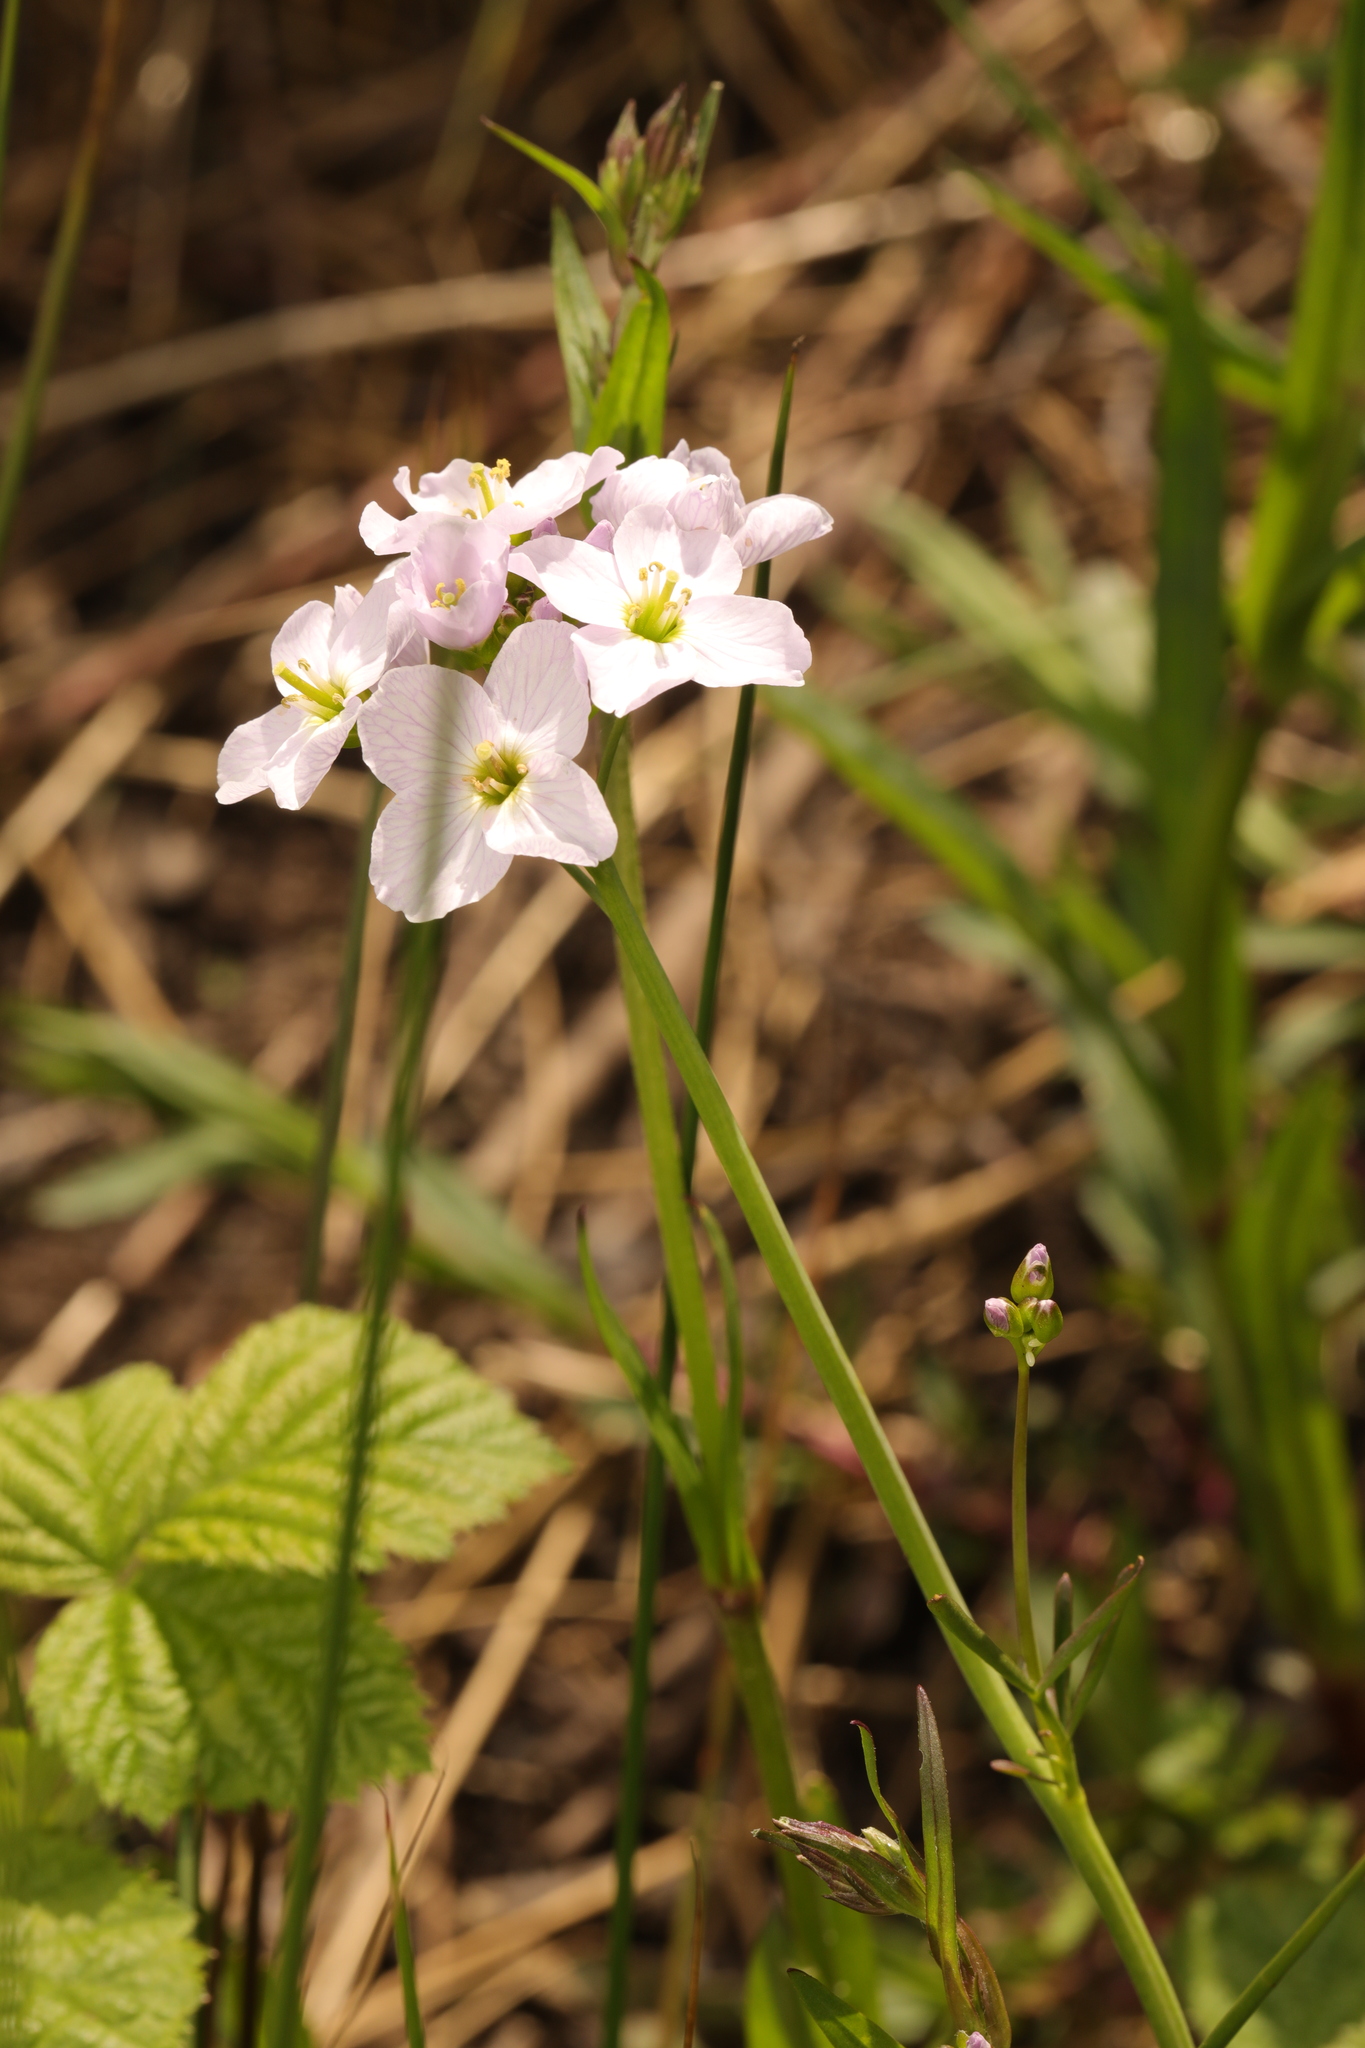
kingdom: Plantae
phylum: Tracheophyta
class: Magnoliopsida
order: Brassicales
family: Brassicaceae
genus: Cardamine
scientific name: Cardamine pratensis
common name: Cuckoo flower
